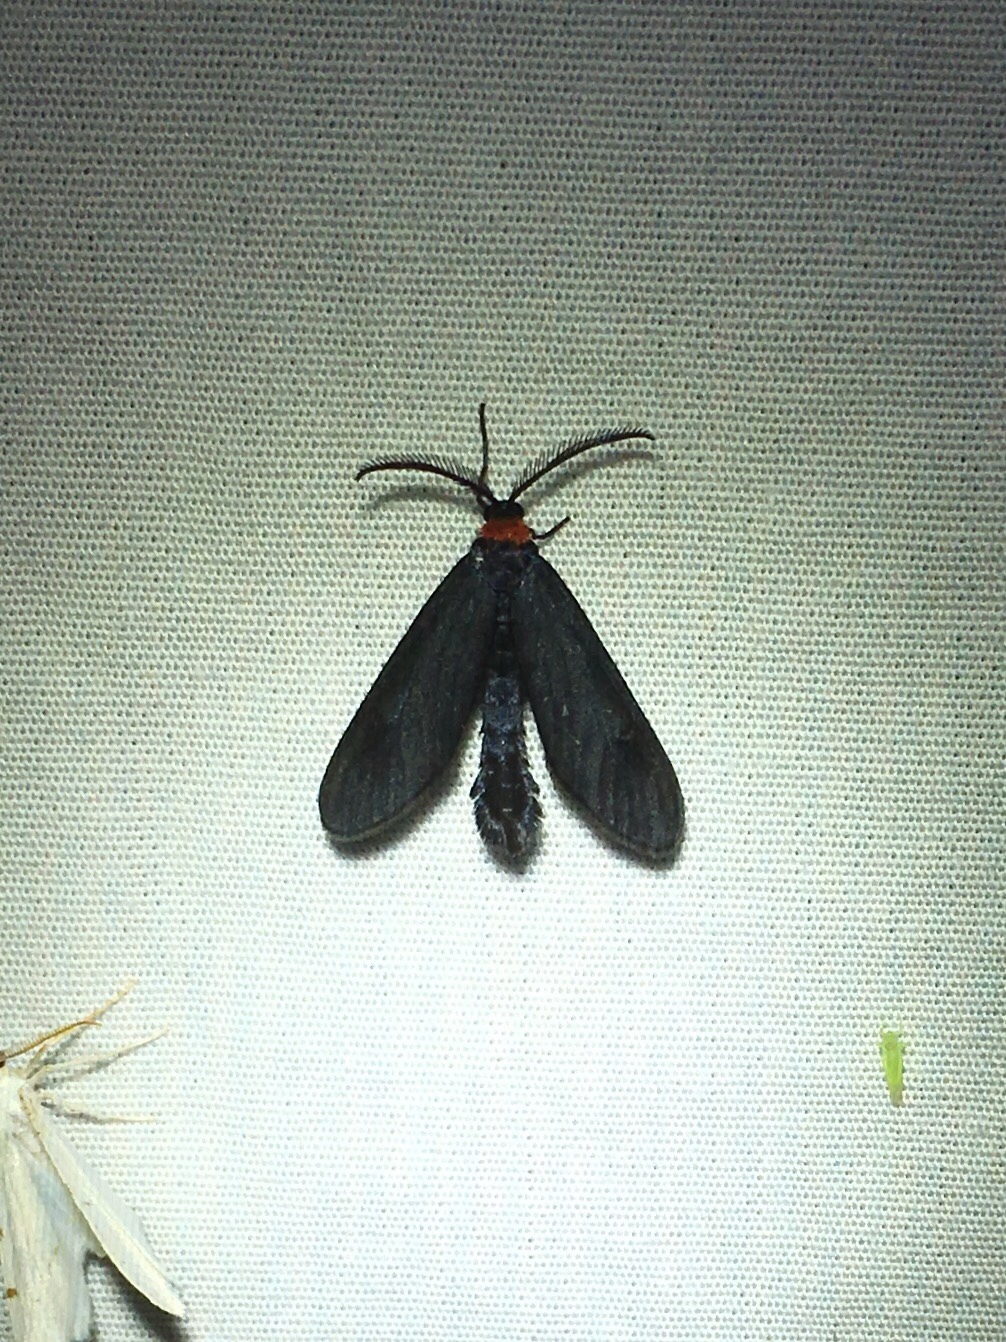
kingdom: Animalia
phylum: Arthropoda
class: Insecta
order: Lepidoptera
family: Zygaenidae
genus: Harrisina
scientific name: Harrisina americana
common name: Grapeleaf skeletonizer moth
